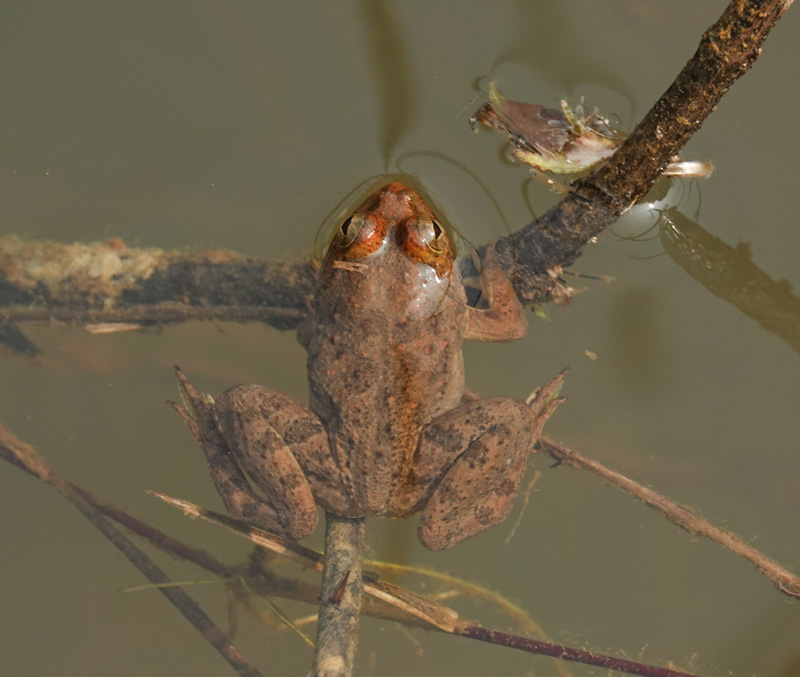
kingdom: Animalia
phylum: Chordata
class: Amphibia
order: Anura
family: Dicroglossidae
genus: Euphlyctis
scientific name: Euphlyctis cyanophlyctis
